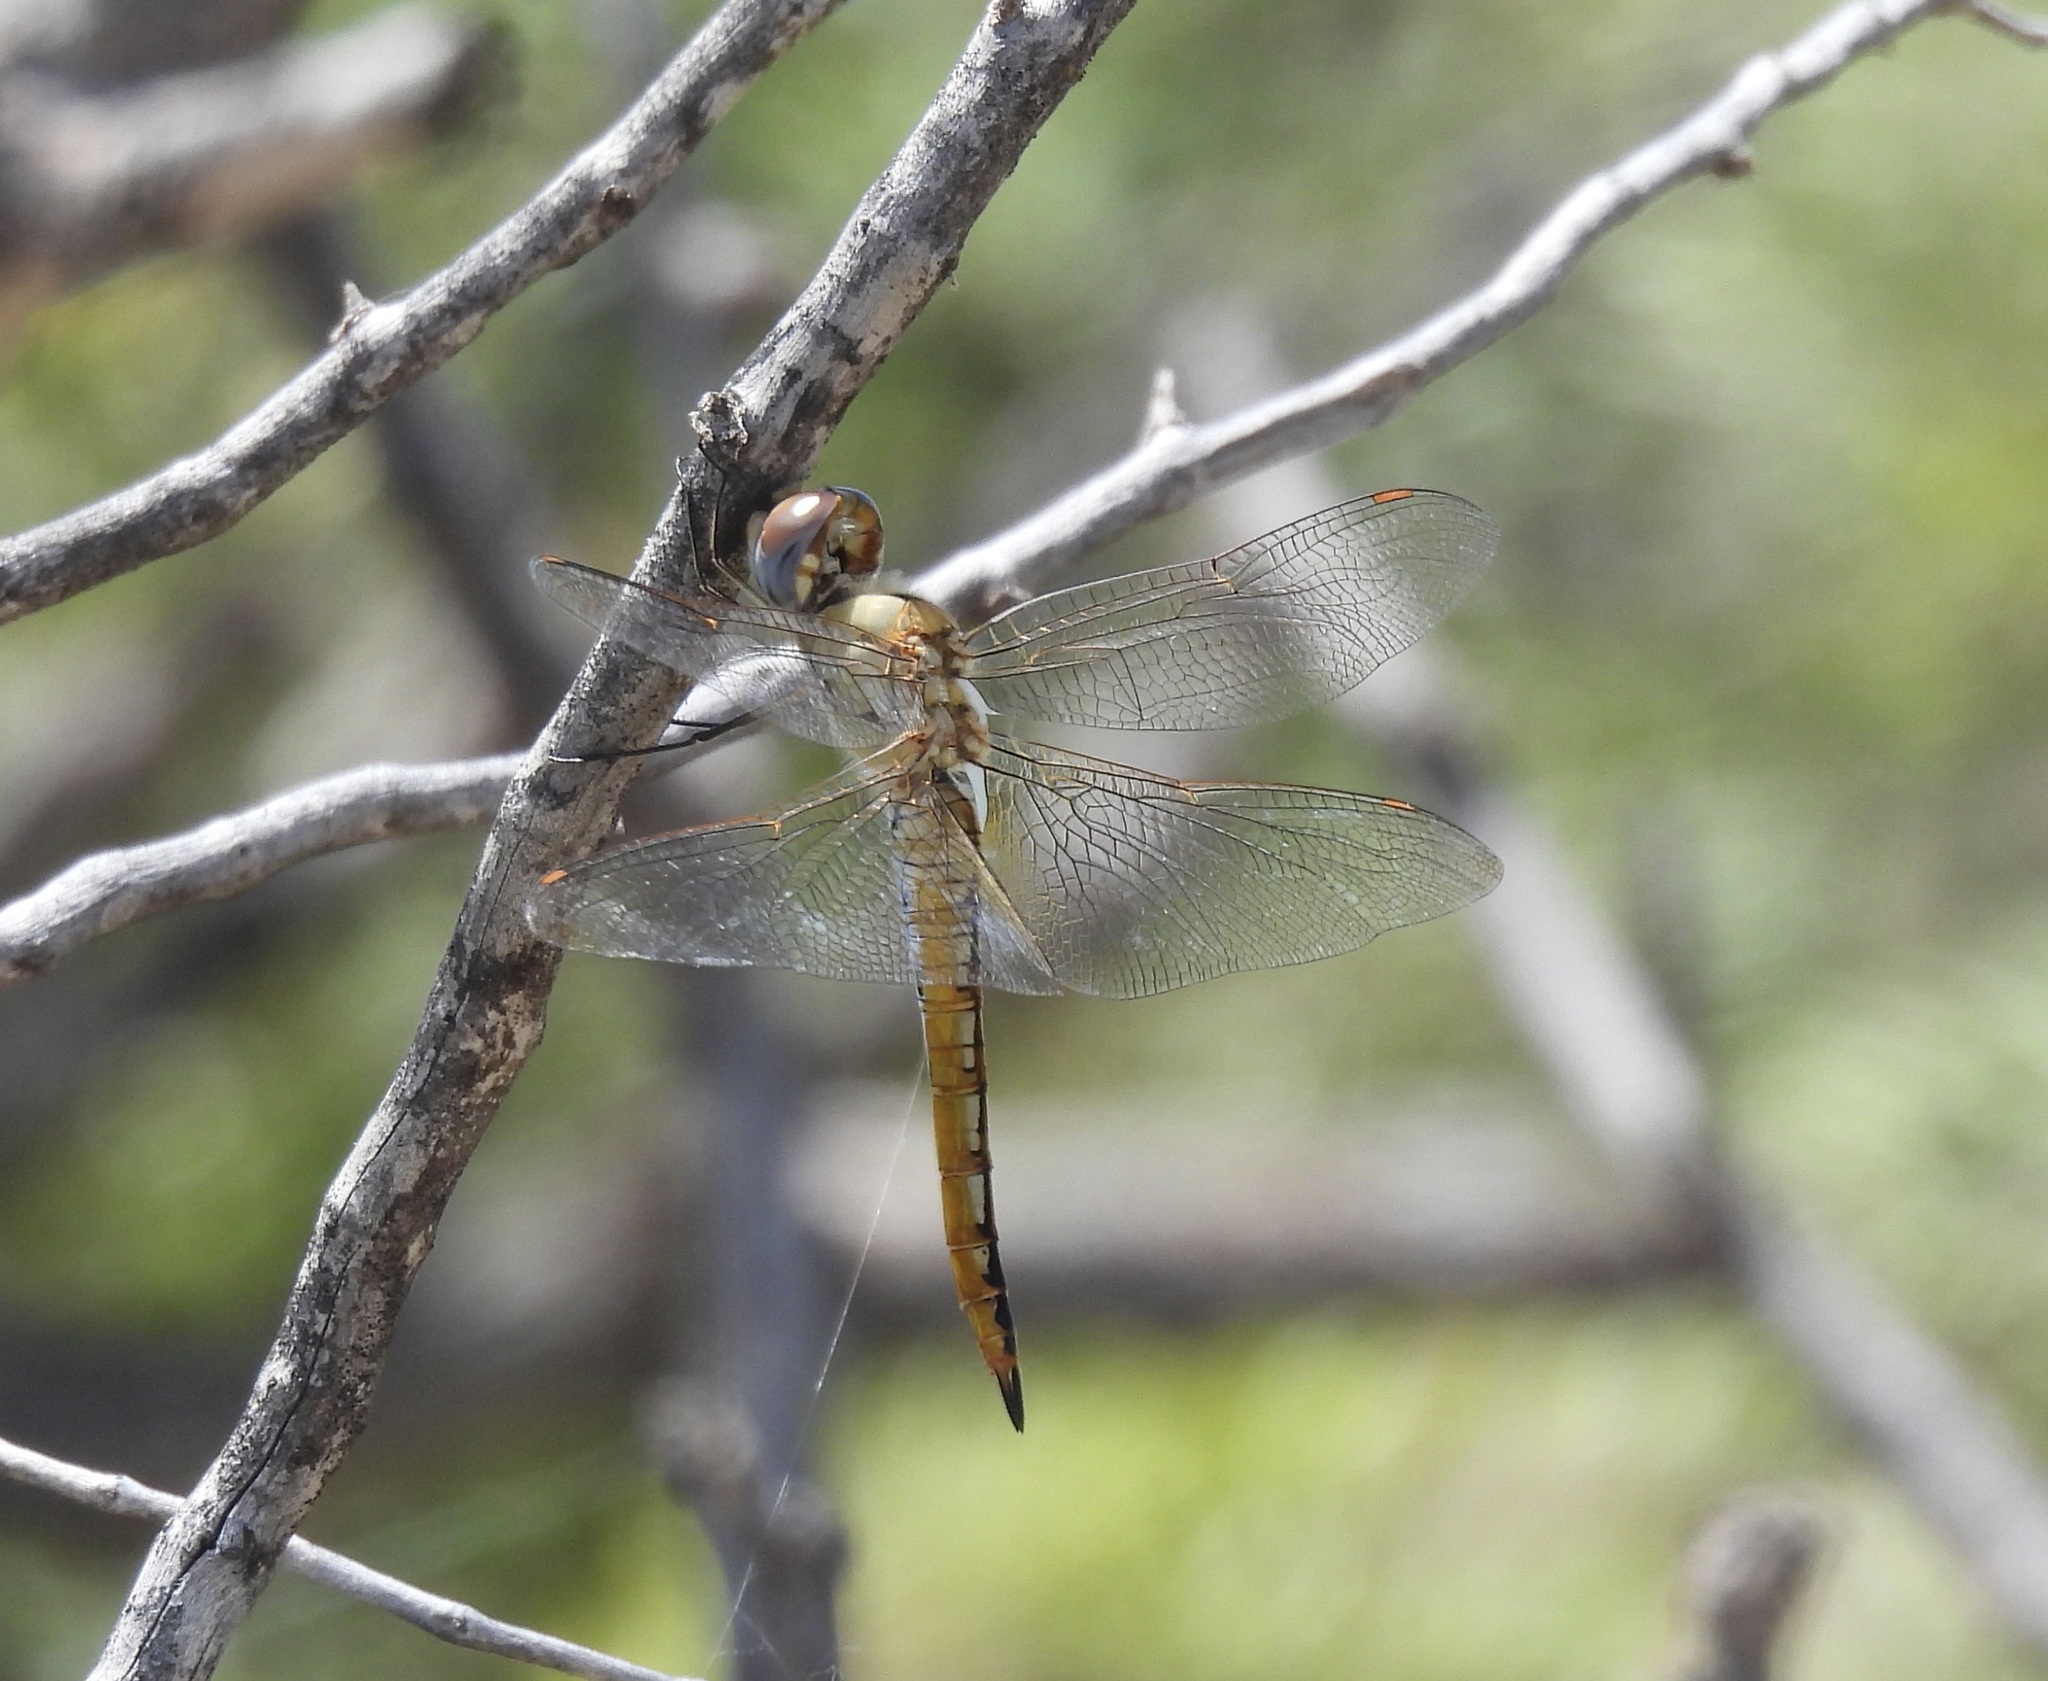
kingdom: Animalia
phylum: Arthropoda
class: Insecta
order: Odonata
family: Libellulidae
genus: Pantala
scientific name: Pantala flavescens
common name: Wandering glider
